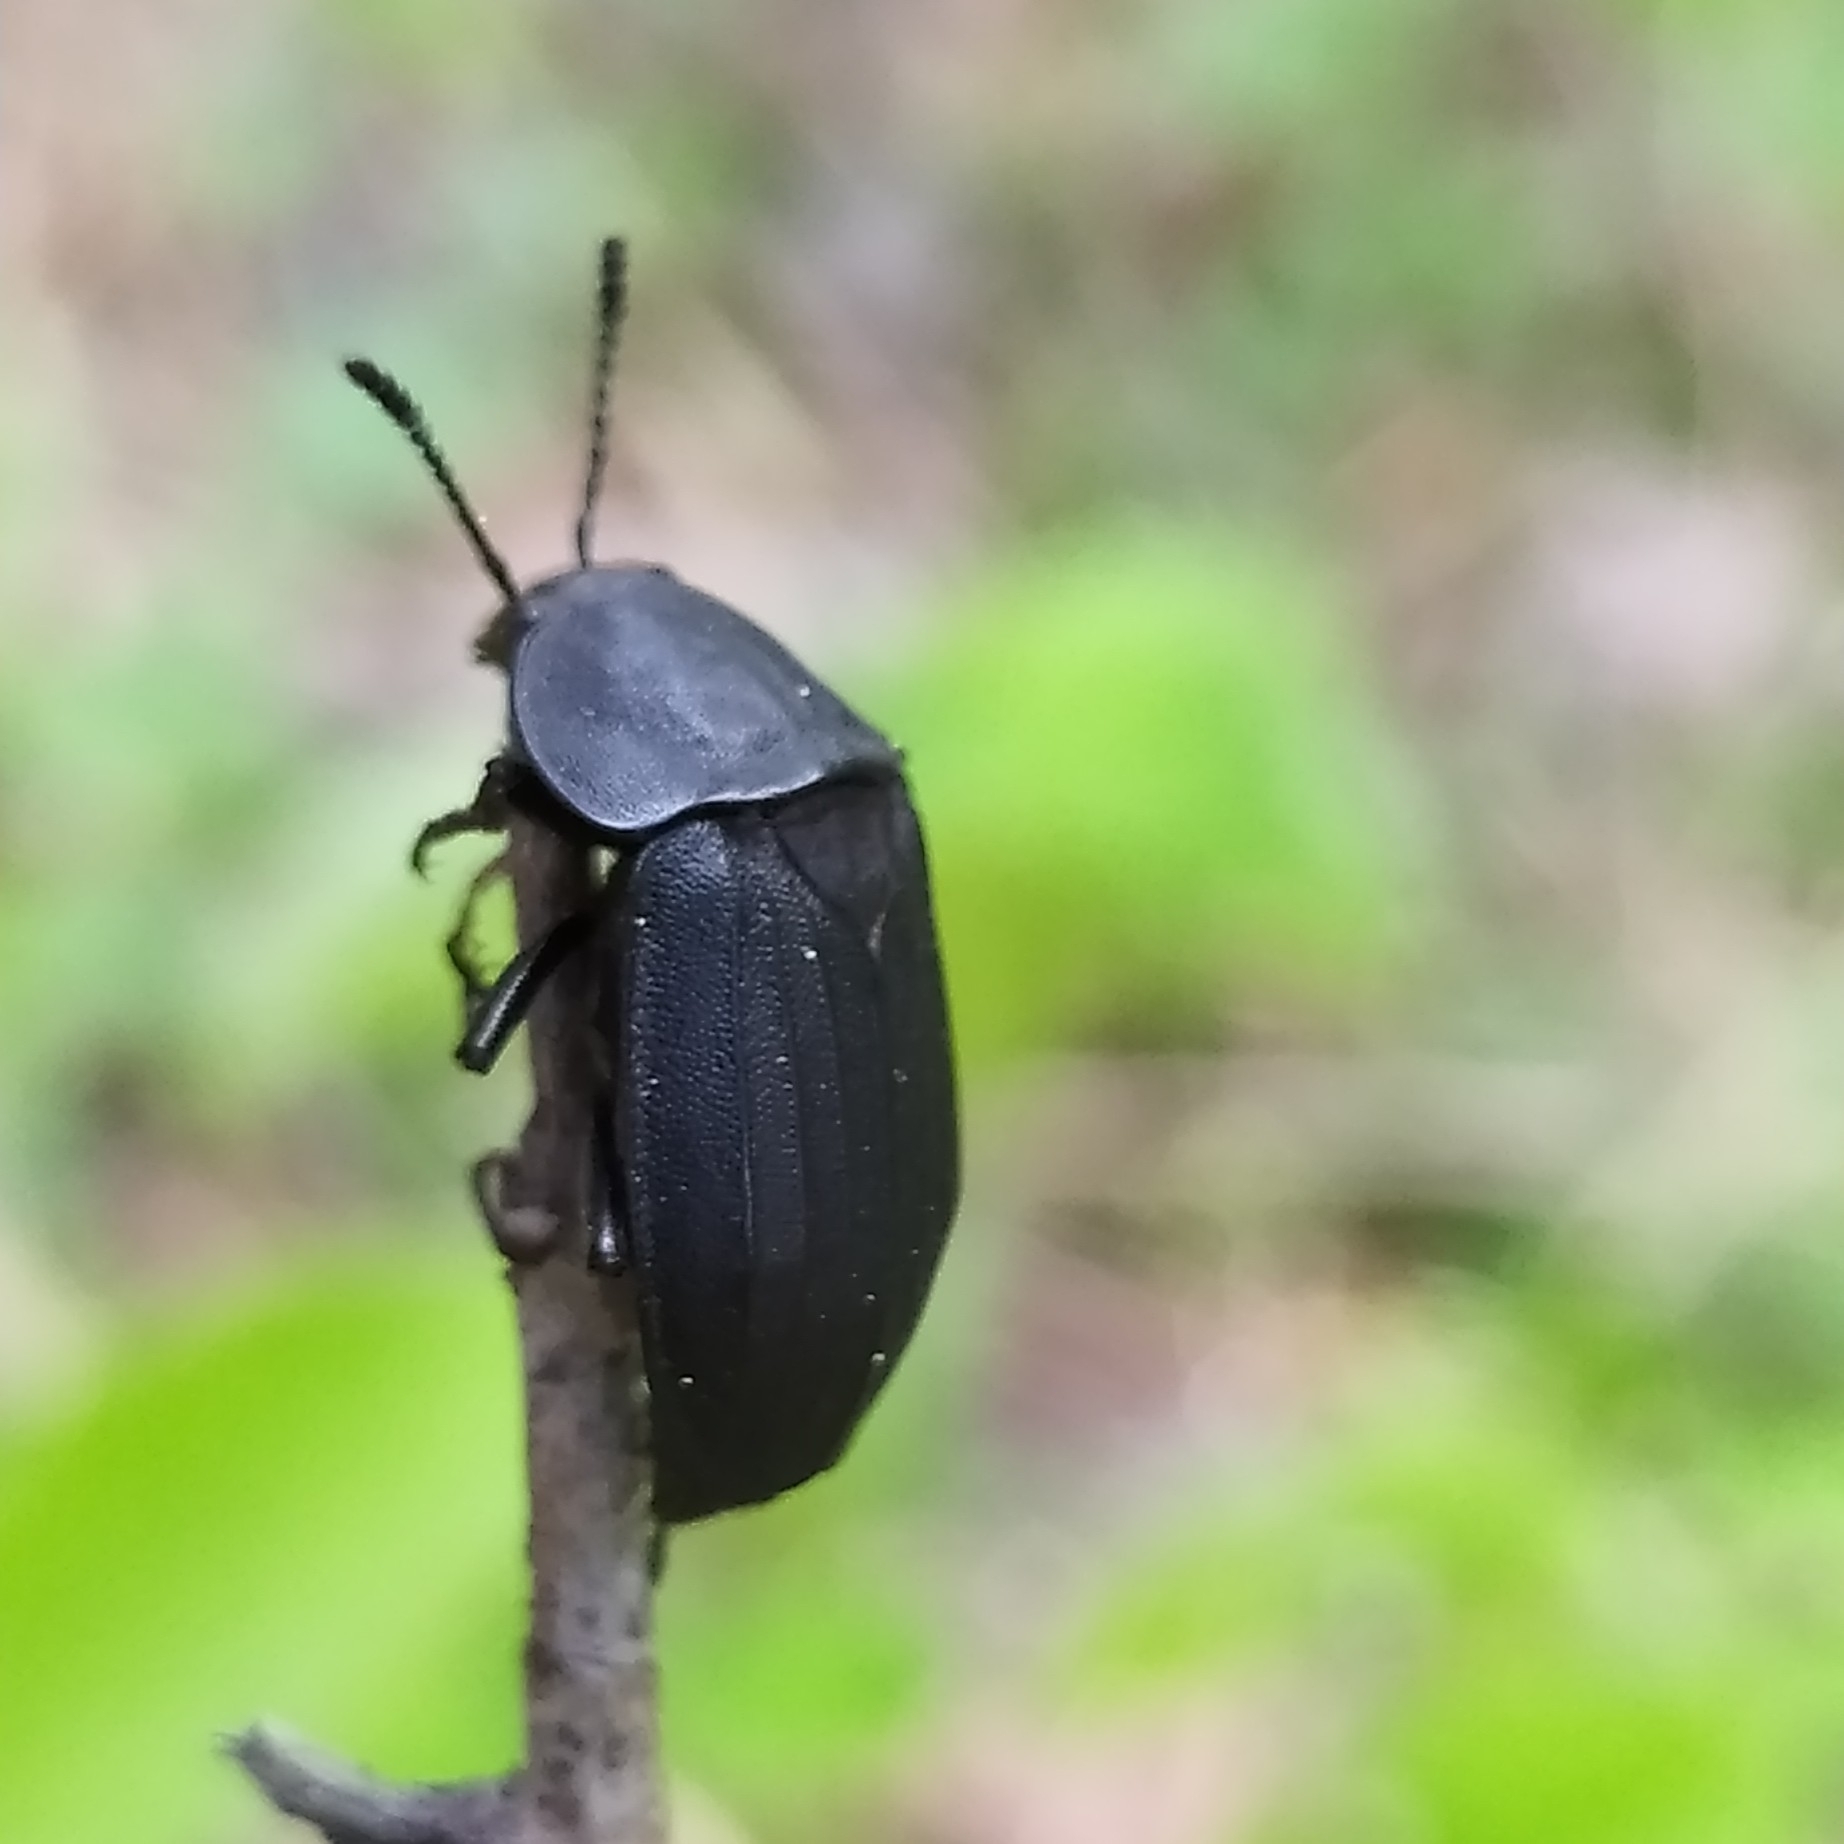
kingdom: Animalia
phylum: Arthropoda
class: Insecta
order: Coleoptera
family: Staphylinidae
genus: Silpha
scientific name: Silpha tristis
